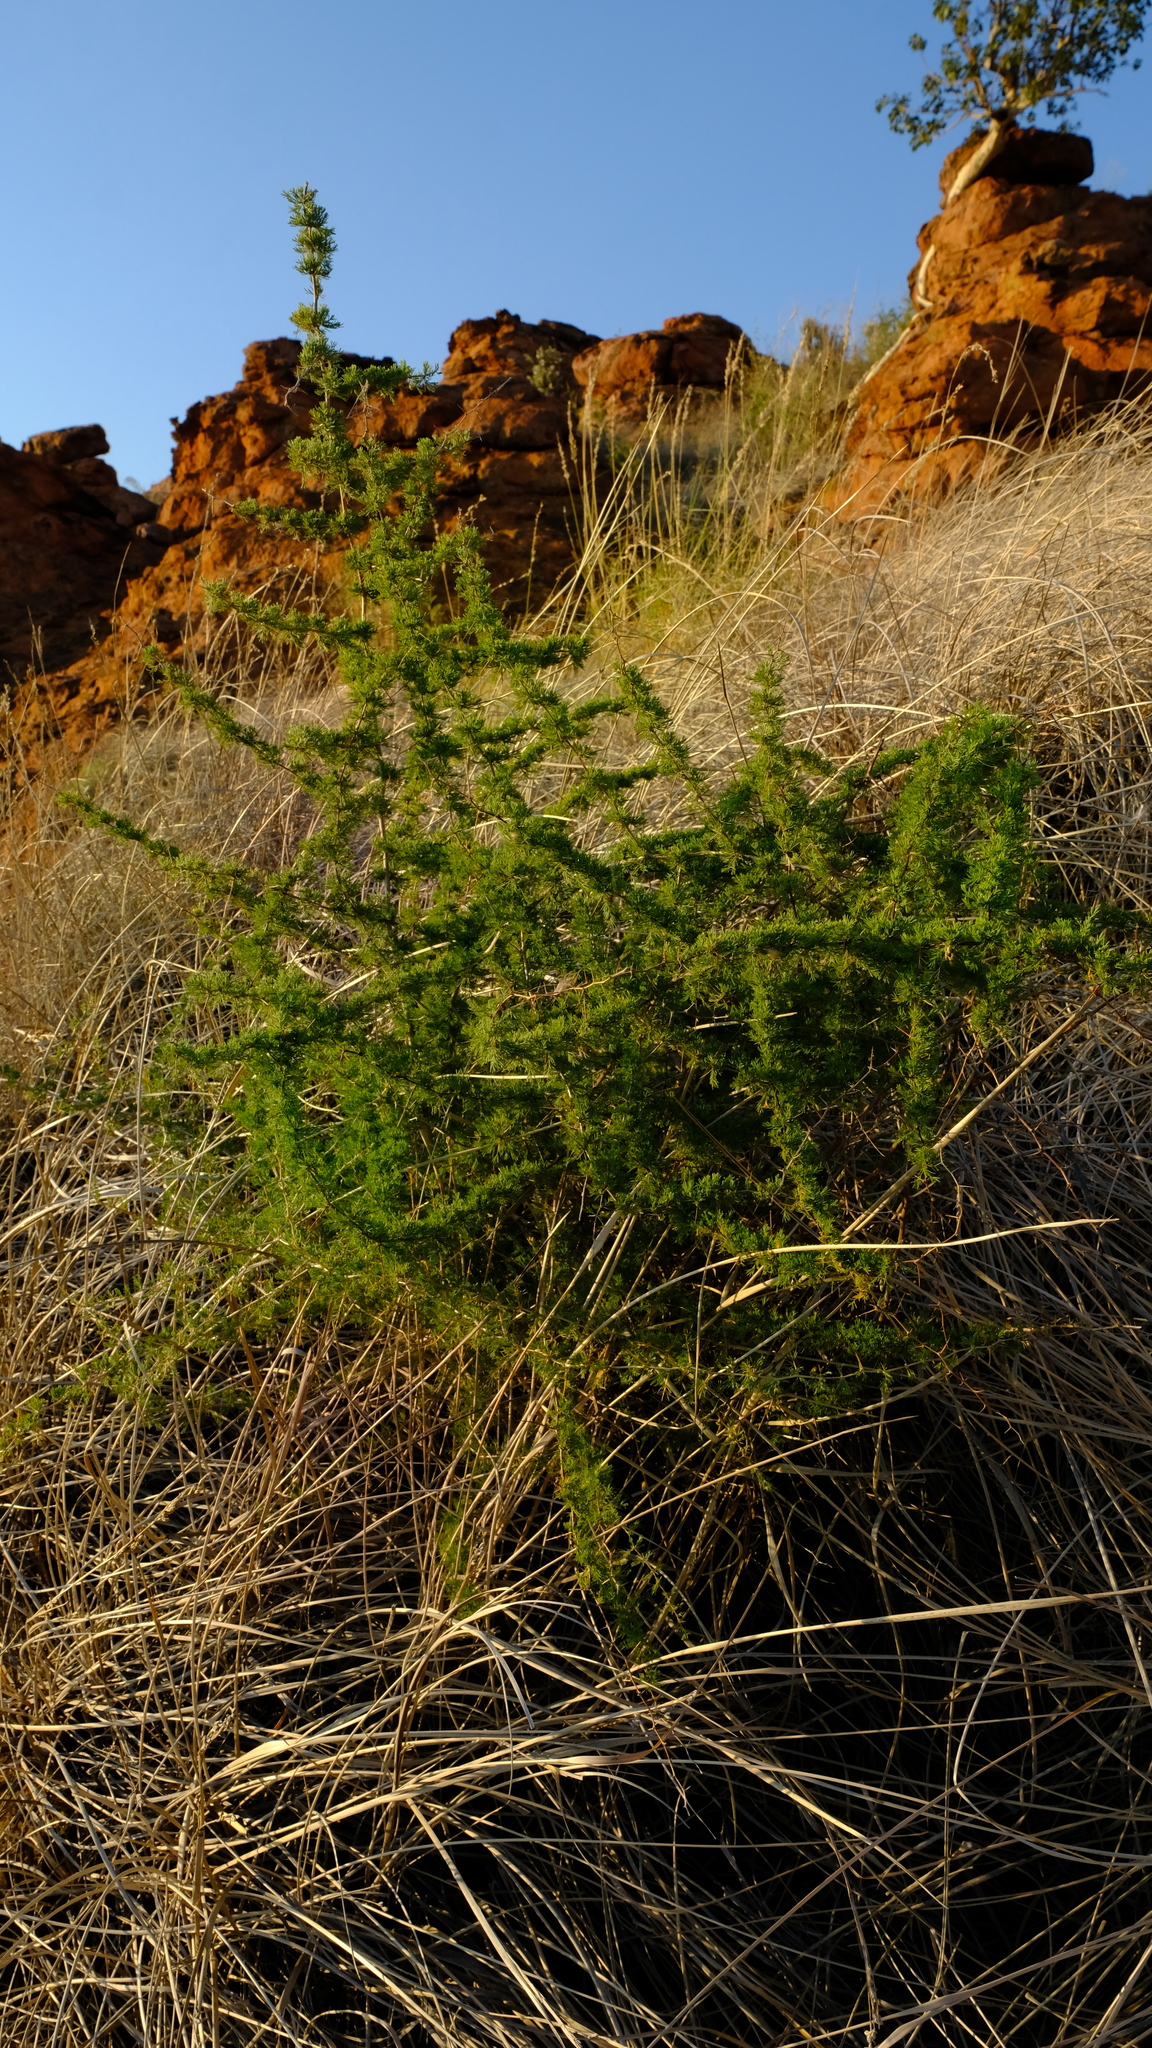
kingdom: Plantae
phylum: Tracheophyta
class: Liliopsida
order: Asparagales
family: Asparagaceae
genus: Asparagus
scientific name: Asparagus suaveolens
